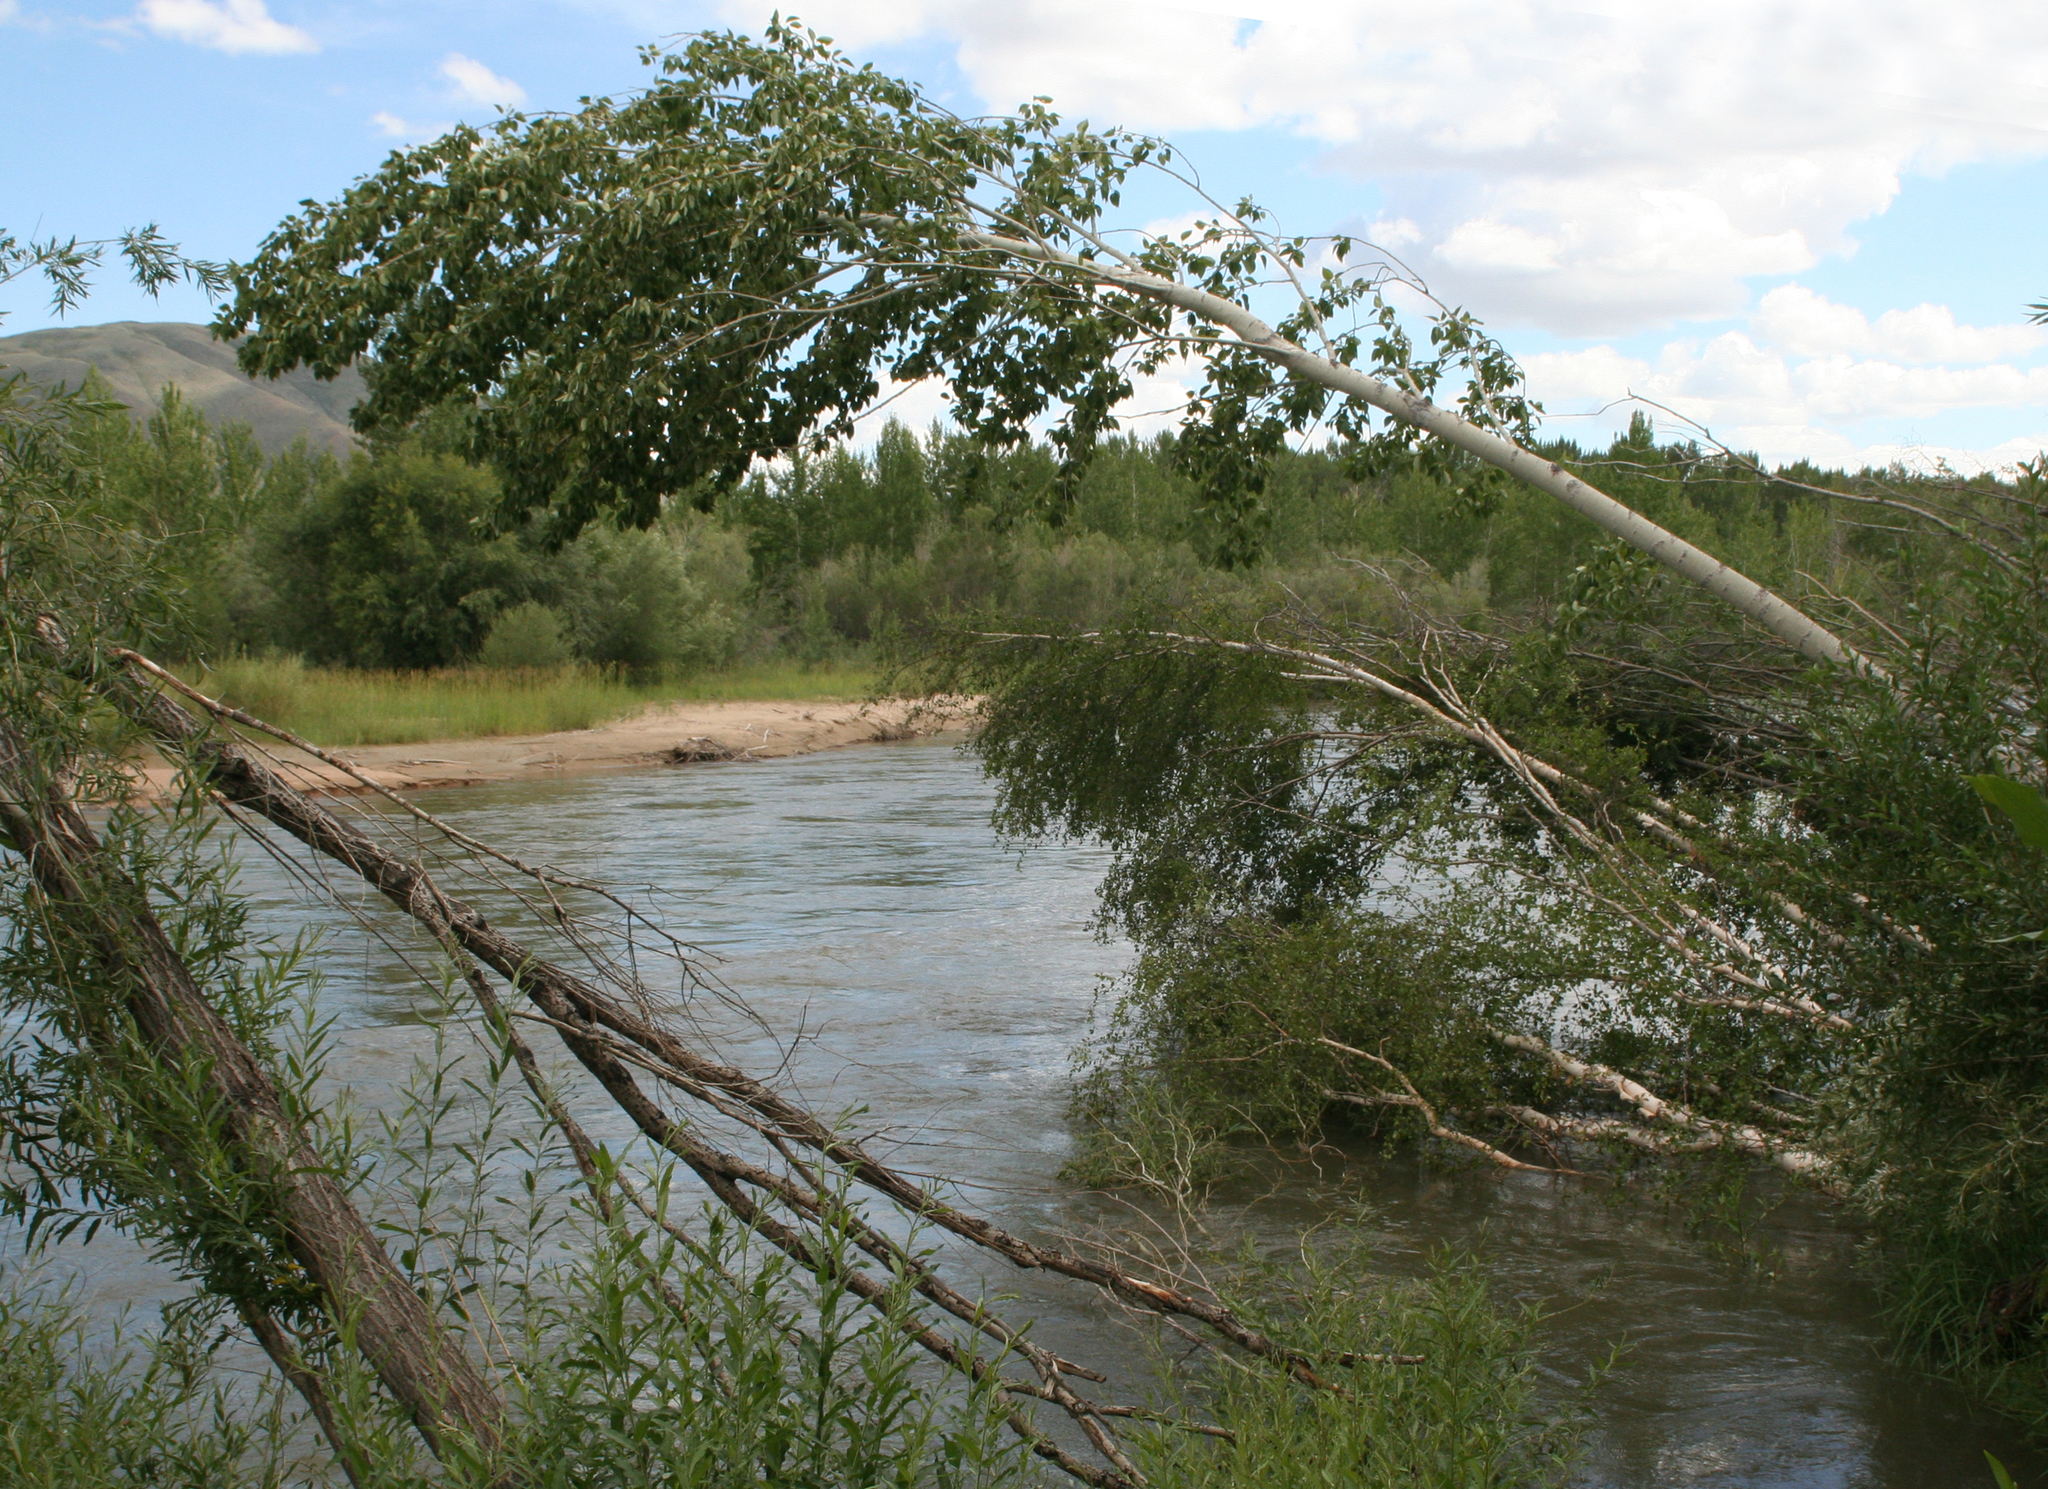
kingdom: Plantae
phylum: Tracheophyta
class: Magnoliopsida
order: Malpighiales
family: Salicaceae
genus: Populus
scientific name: Populus laurifolia
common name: Laurel-leaf poplar
